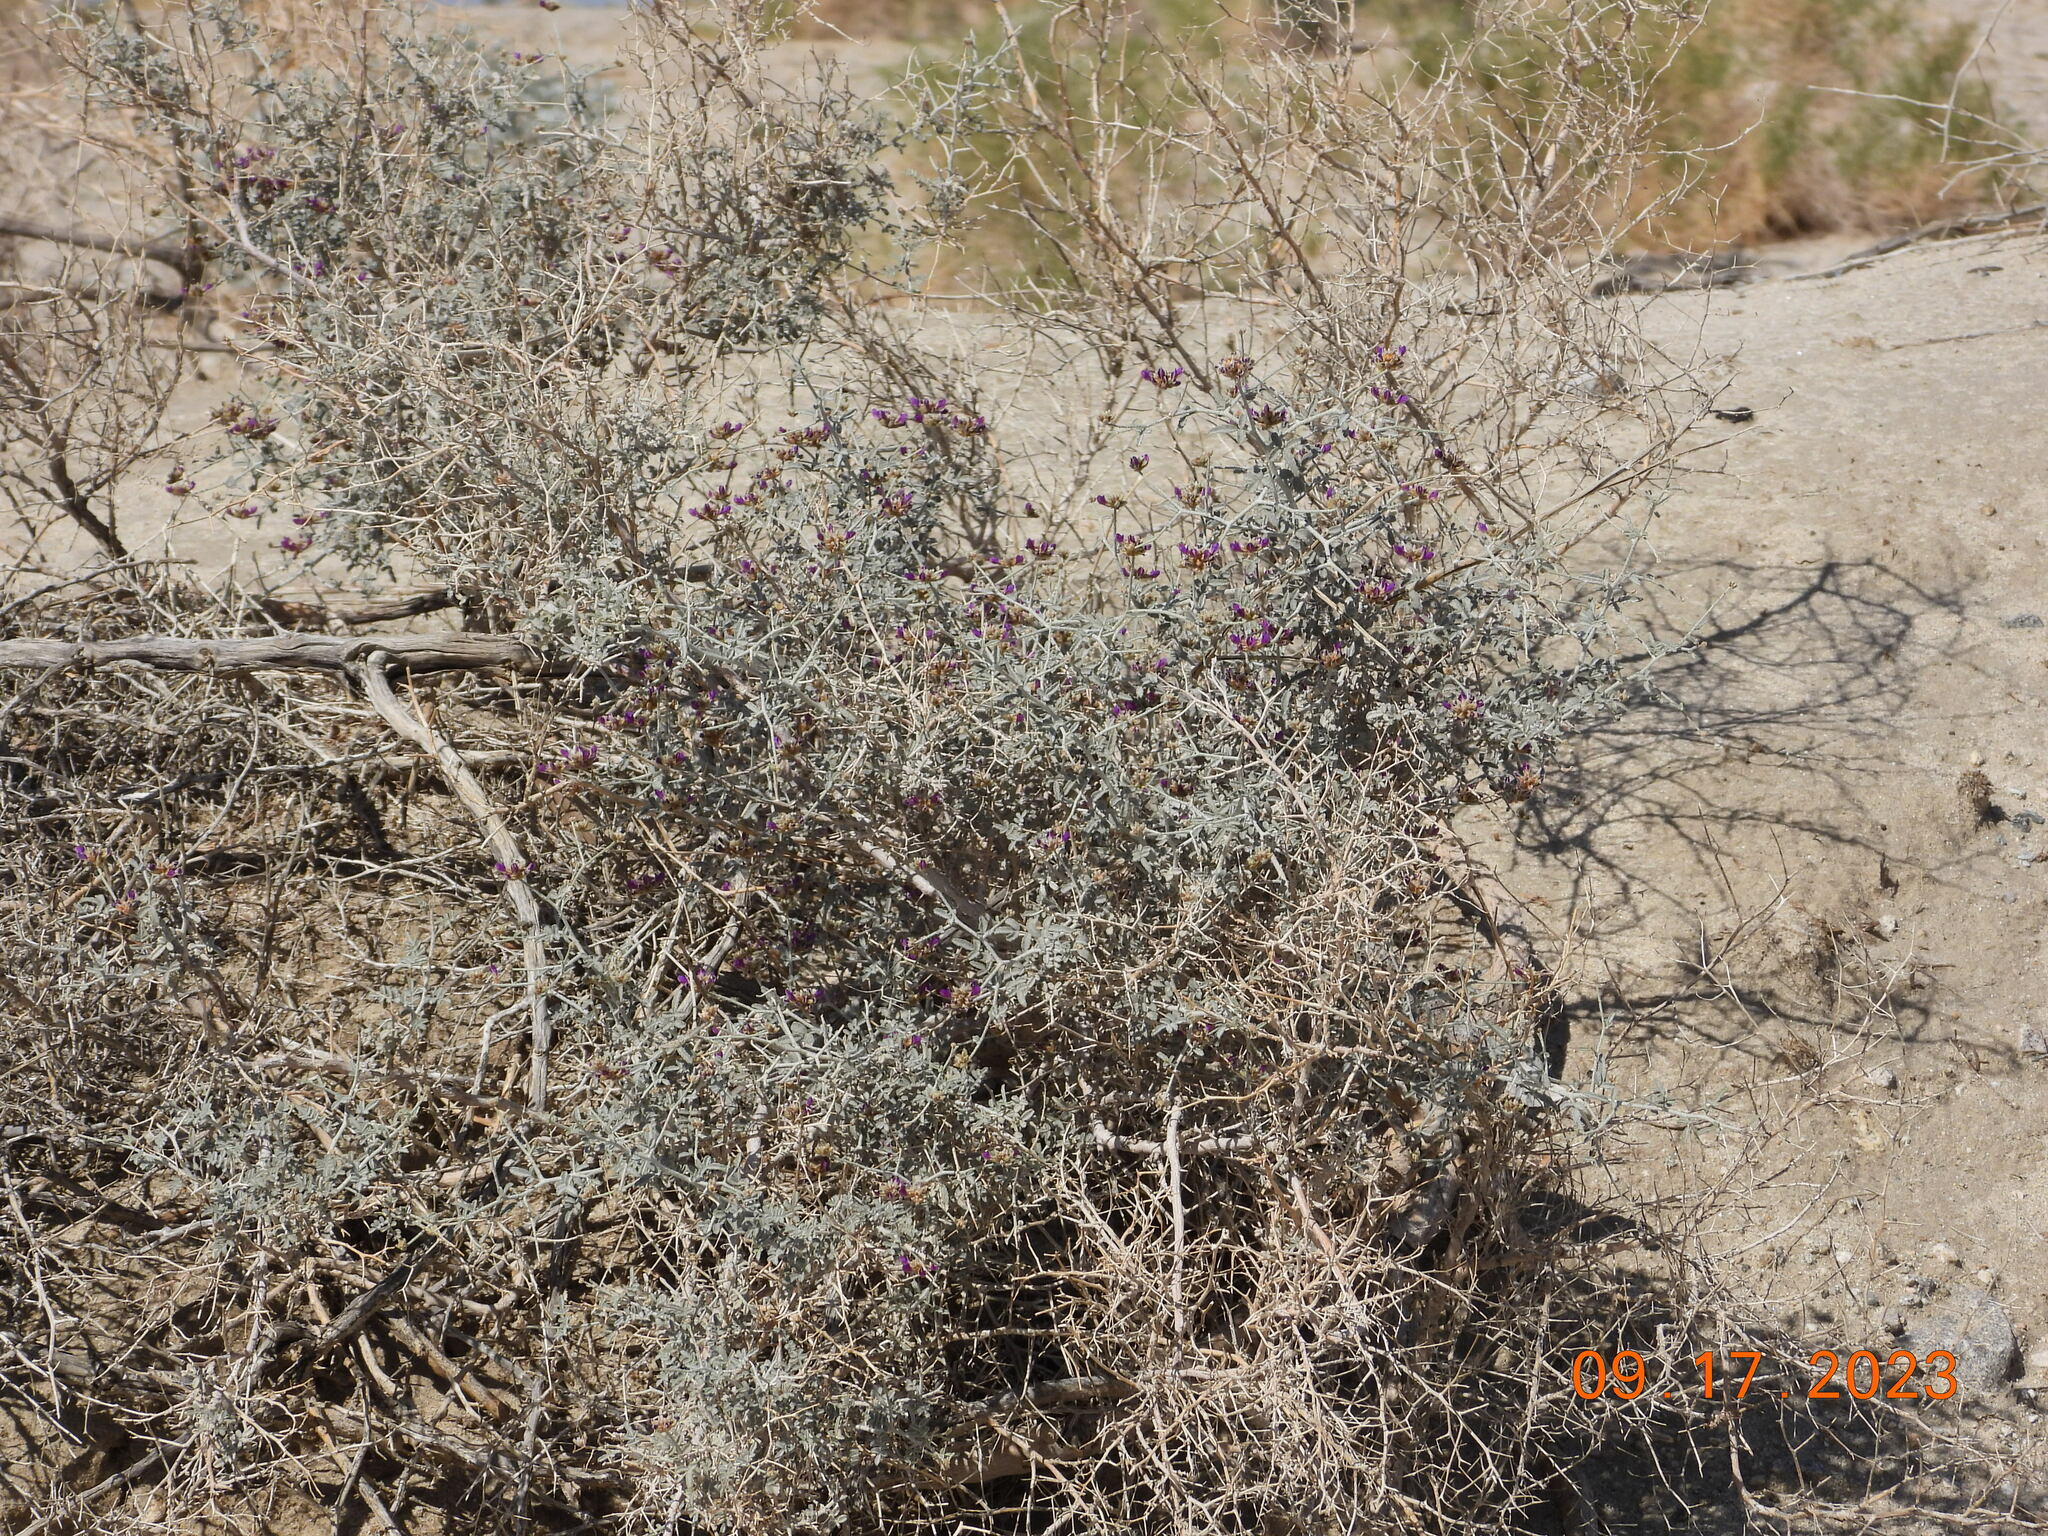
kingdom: Plantae
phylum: Tracheophyta
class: Magnoliopsida
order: Fabales
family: Fabaceae
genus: Psorothamnus
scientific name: Psorothamnus emoryi
